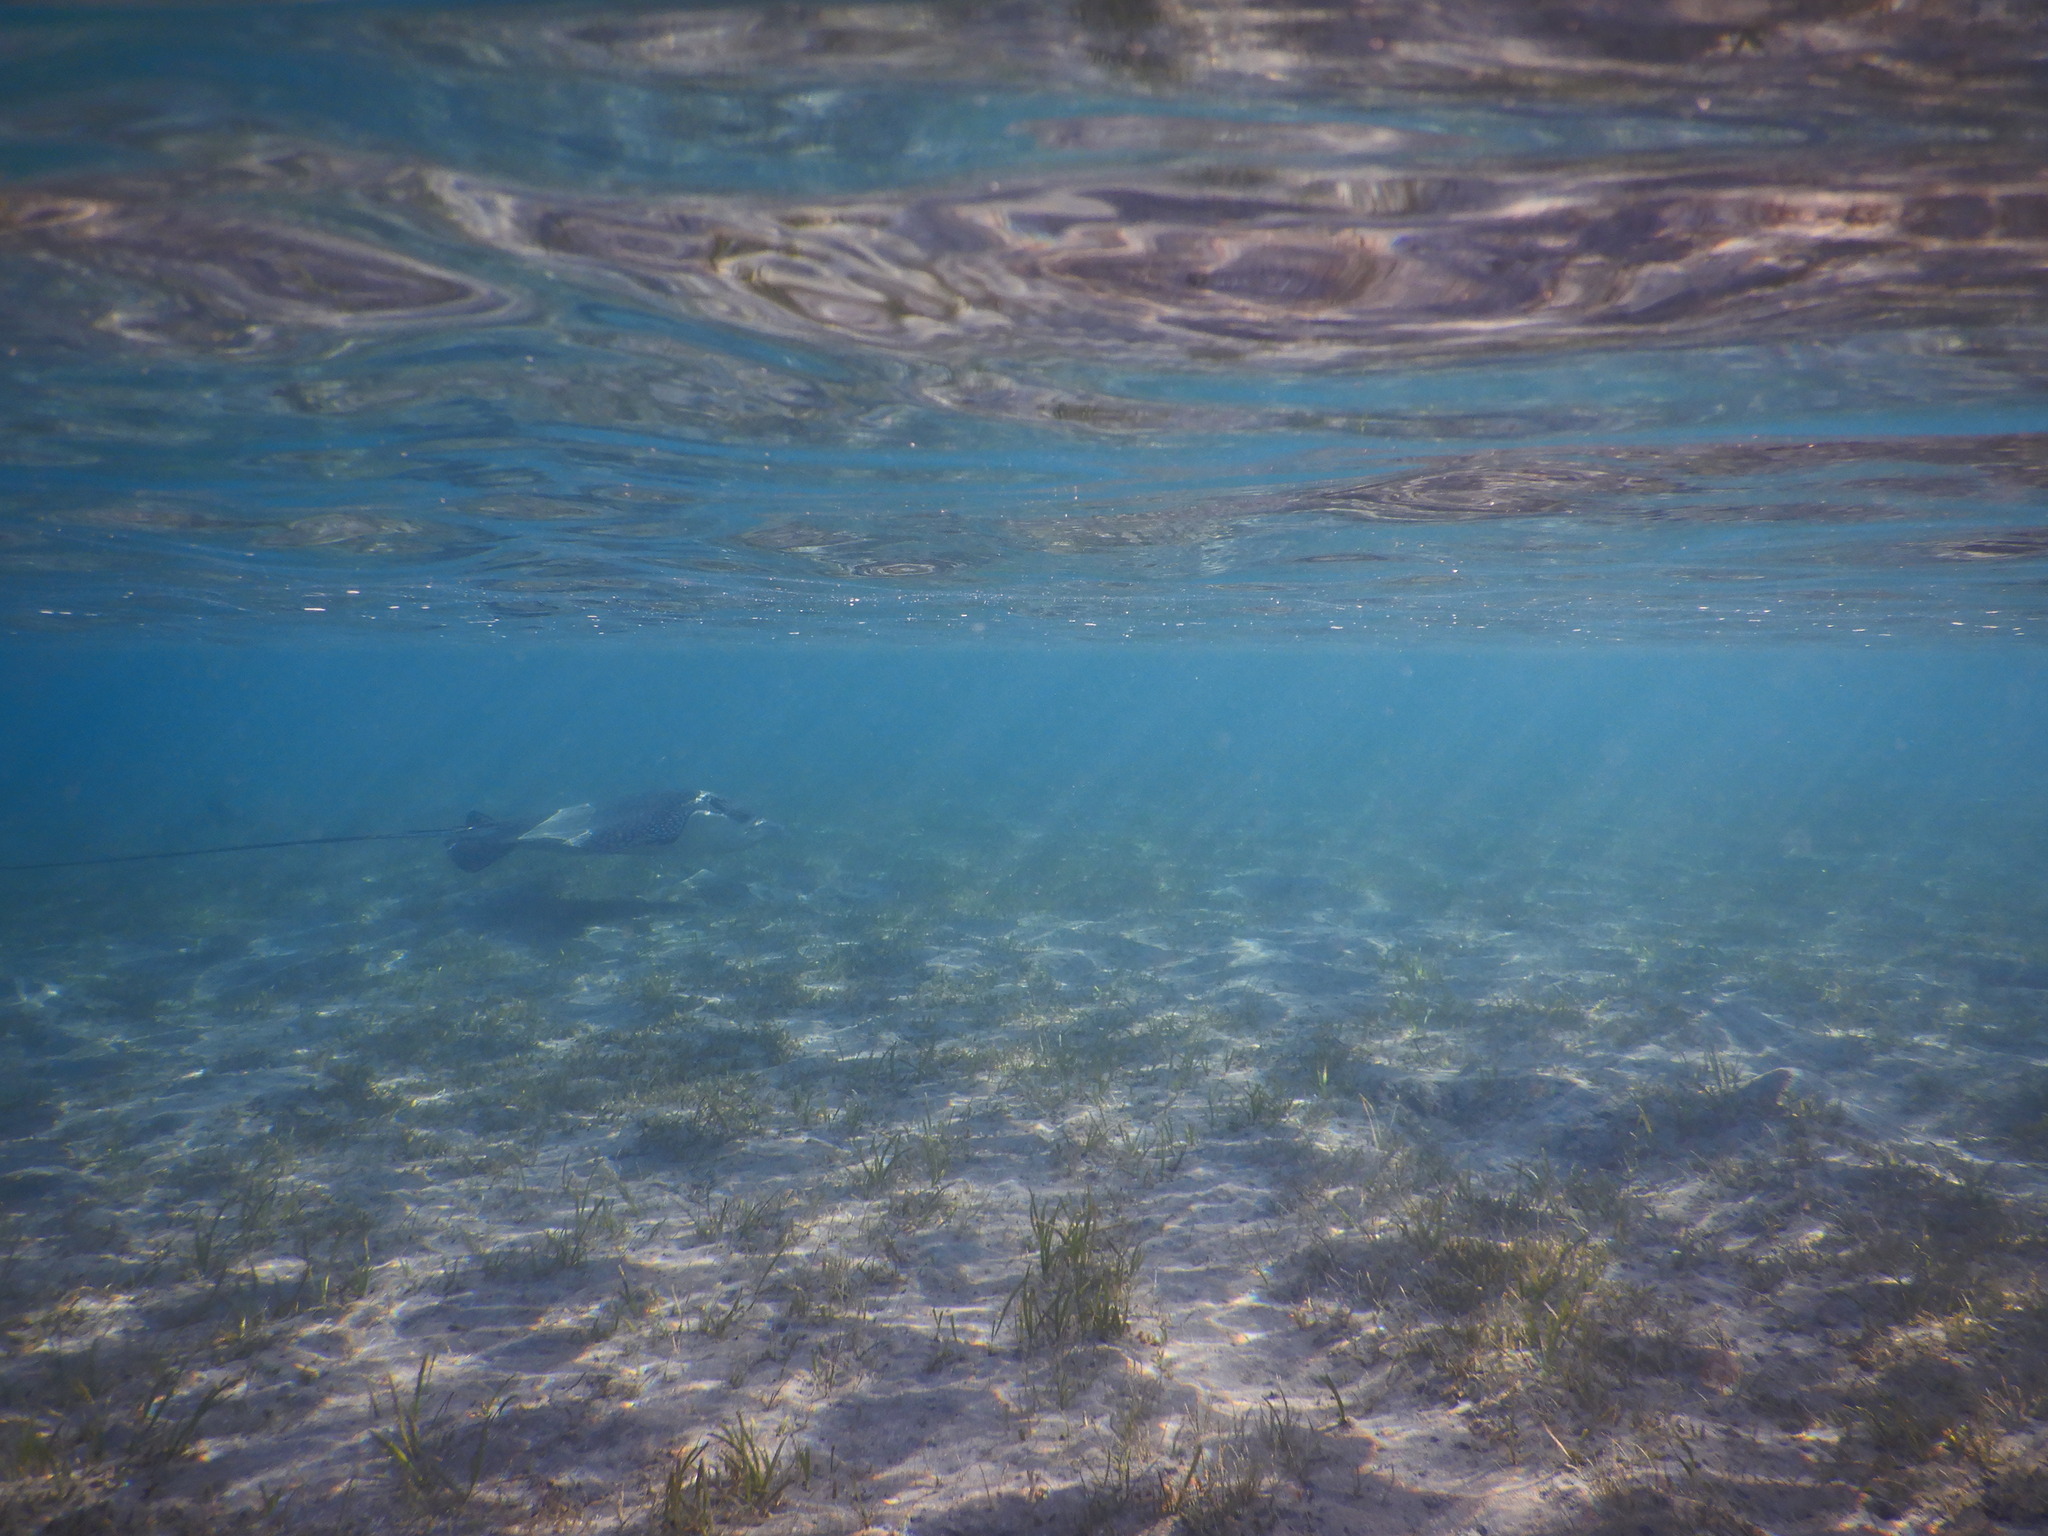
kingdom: Animalia
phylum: Chordata
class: Elasmobranchii
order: Myliobatiformes
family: Myliobatidae
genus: Aetobatus
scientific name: Aetobatus ocellatus
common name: Ocellated eagle ray
